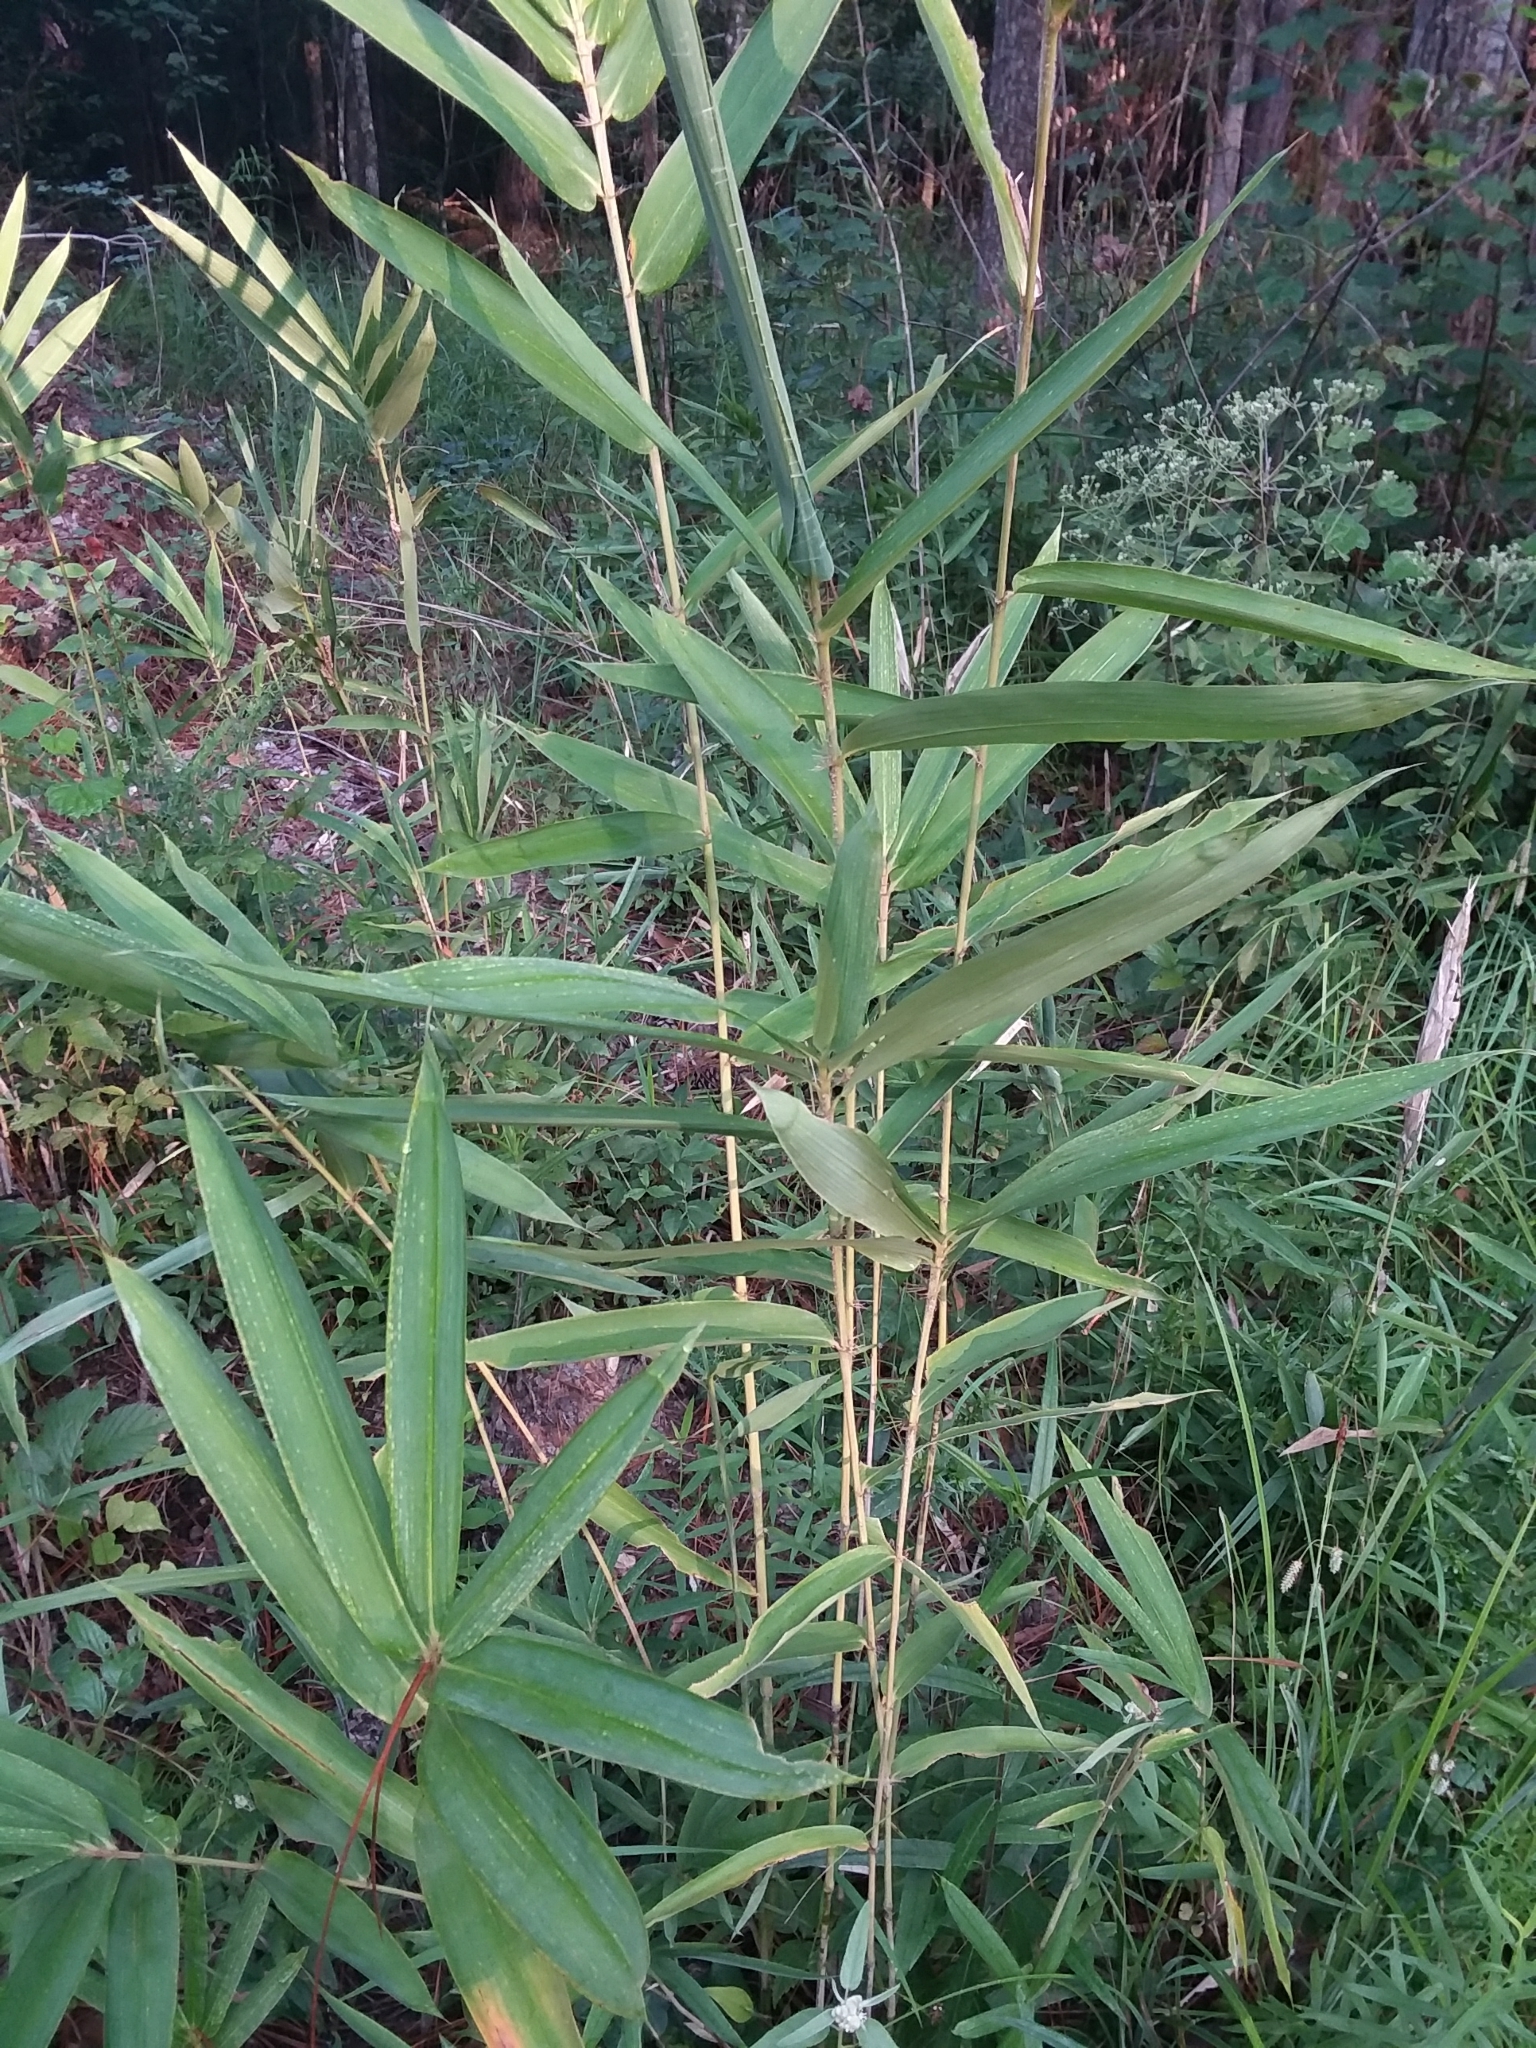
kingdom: Plantae
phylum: Tracheophyta
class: Liliopsida
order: Poales
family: Poaceae
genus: Arundinaria
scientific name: Arundinaria tecta
